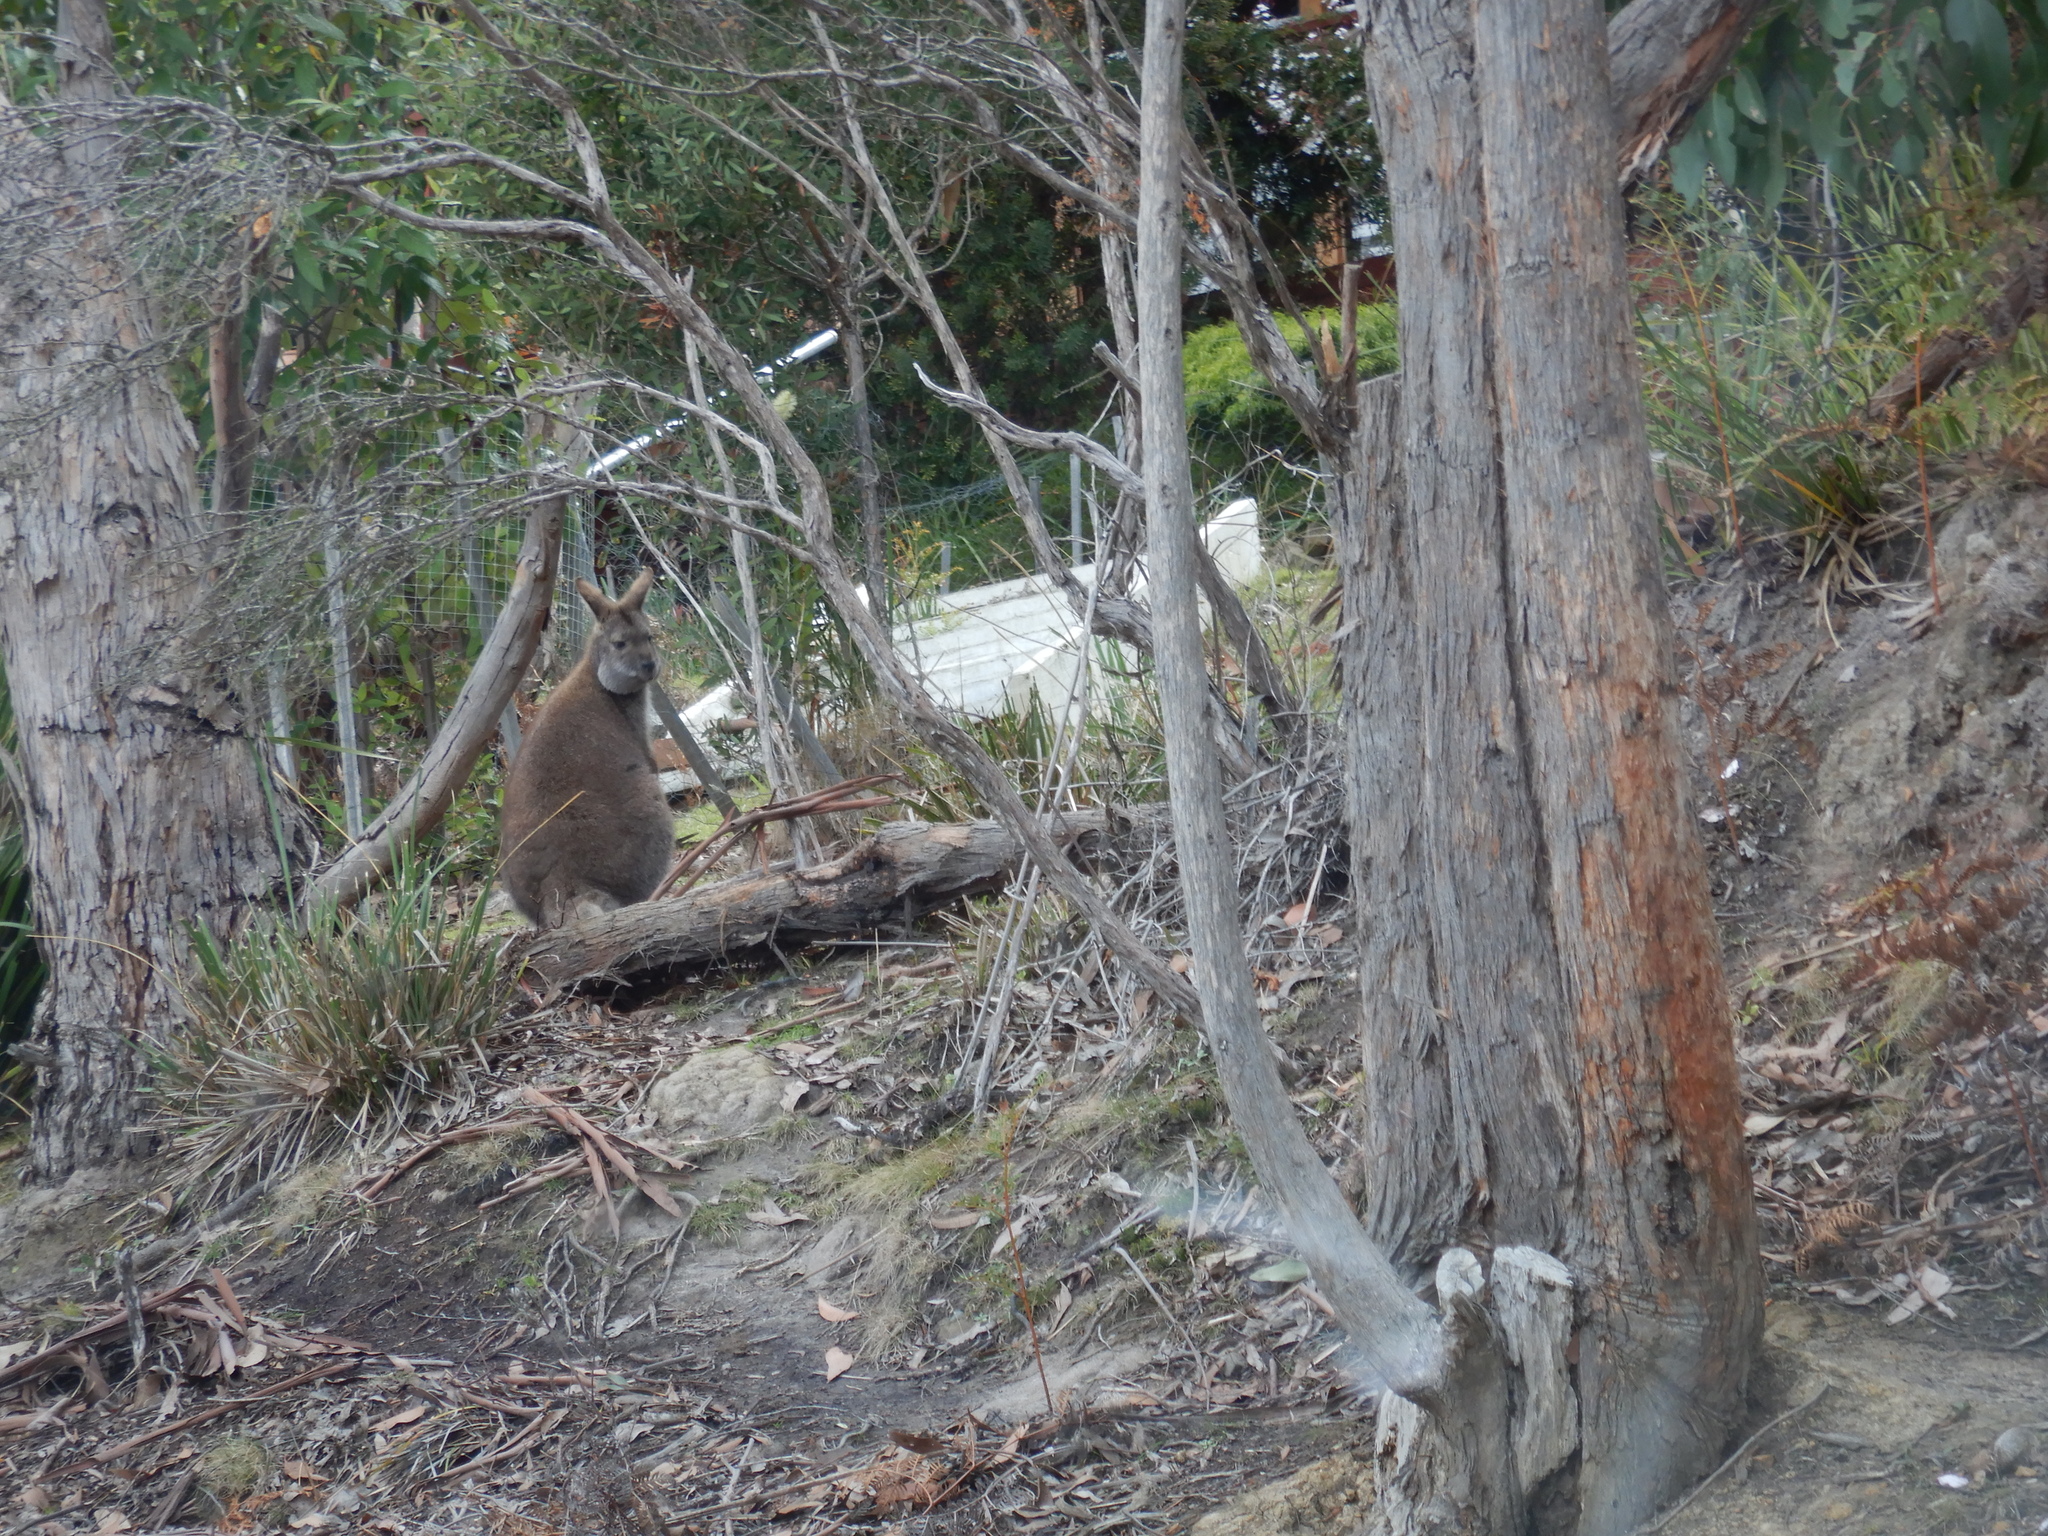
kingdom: Animalia
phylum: Chordata
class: Mammalia
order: Diprotodontia
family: Macropodidae
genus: Notamacropus
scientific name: Notamacropus rufogriseus
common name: Red-necked wallaby
